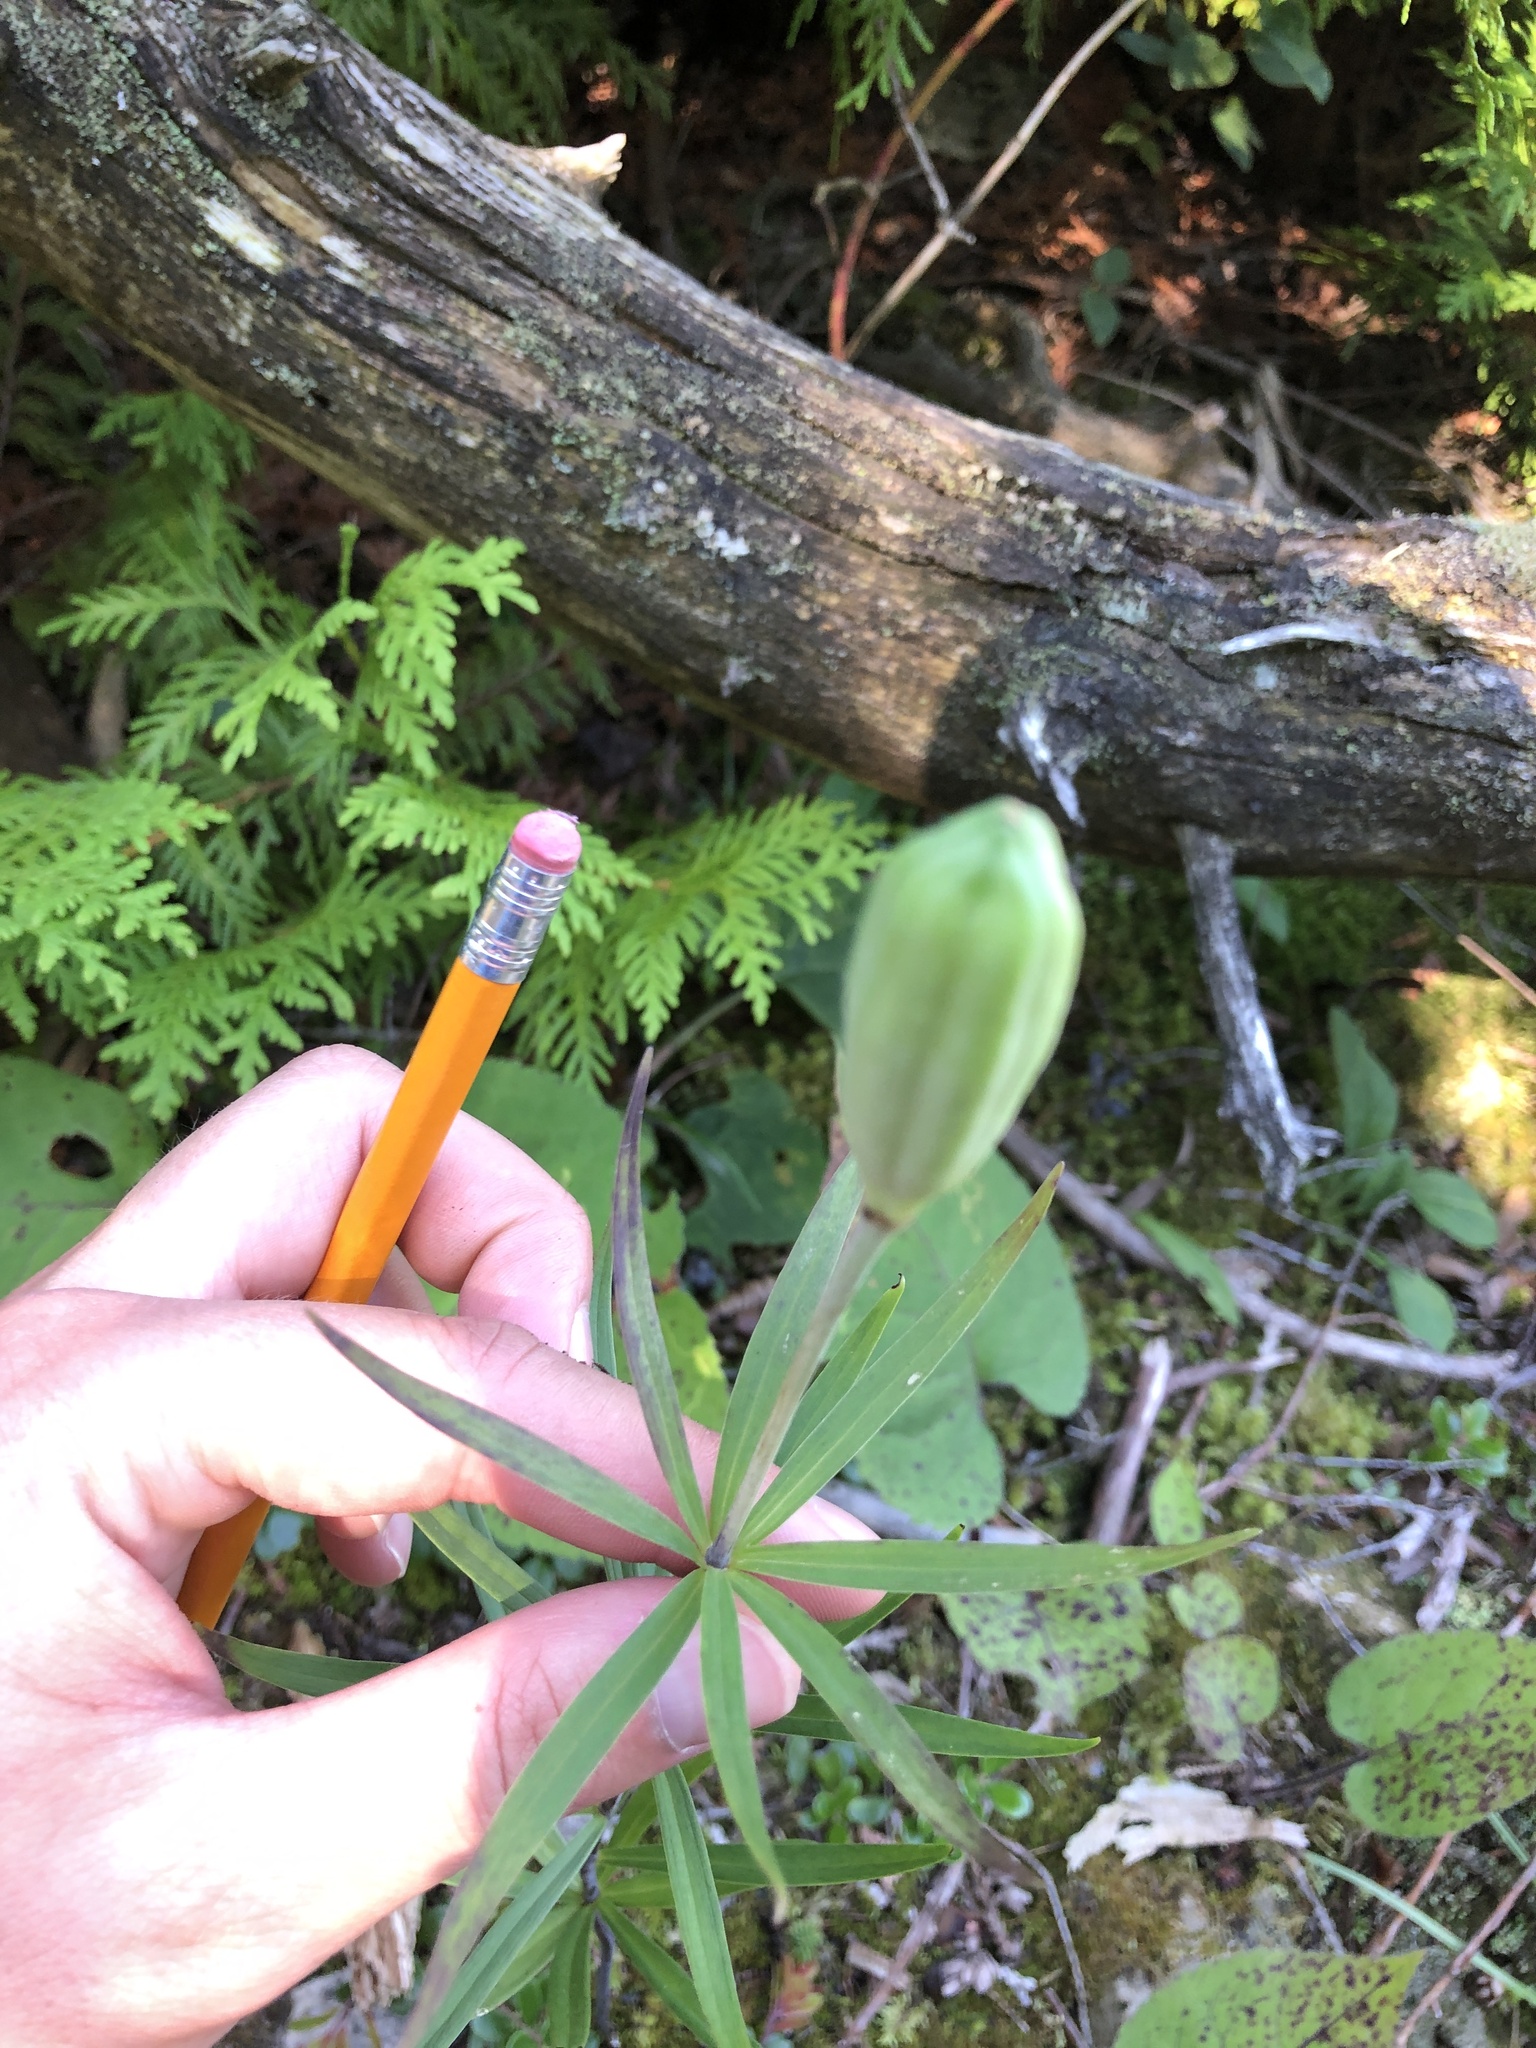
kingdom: Plantae
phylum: Tracheophyta
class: Liliopsida
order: Liliales
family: Liliaceae
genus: Lilium
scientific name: Lilium philadelphicum
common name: Red lily
